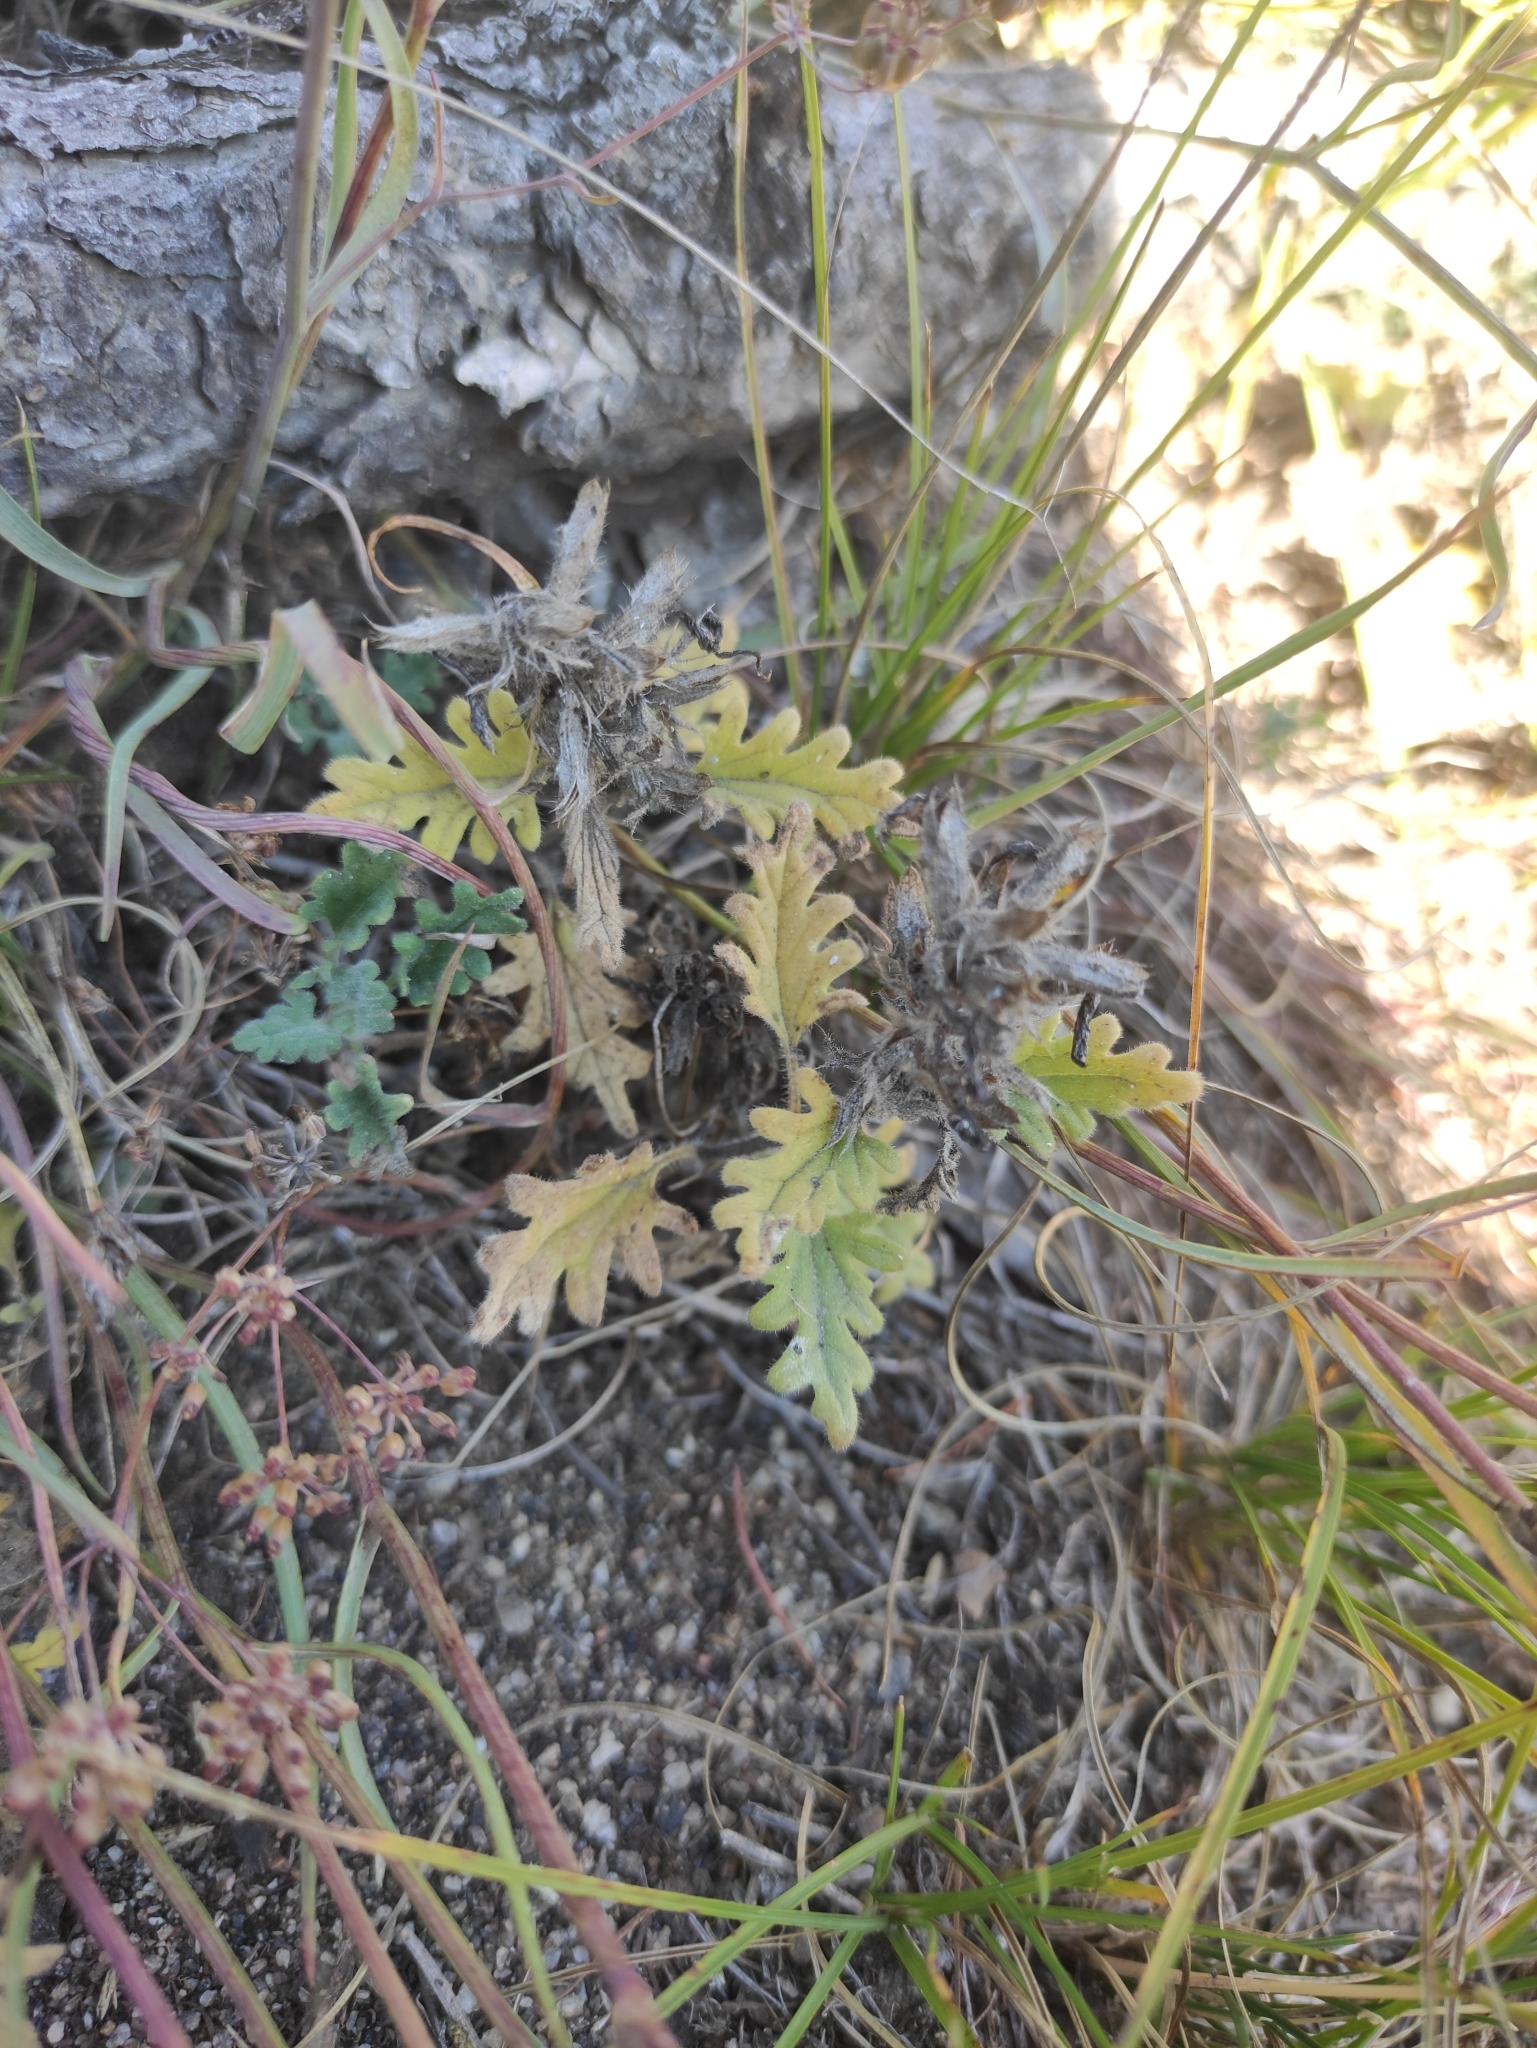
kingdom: Plantae
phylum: Tracheophyta
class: Magnoliopsida
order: Lamiales
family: Lamiaceae
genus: Dracocephalum
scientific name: Dracocephalum pinnatum
